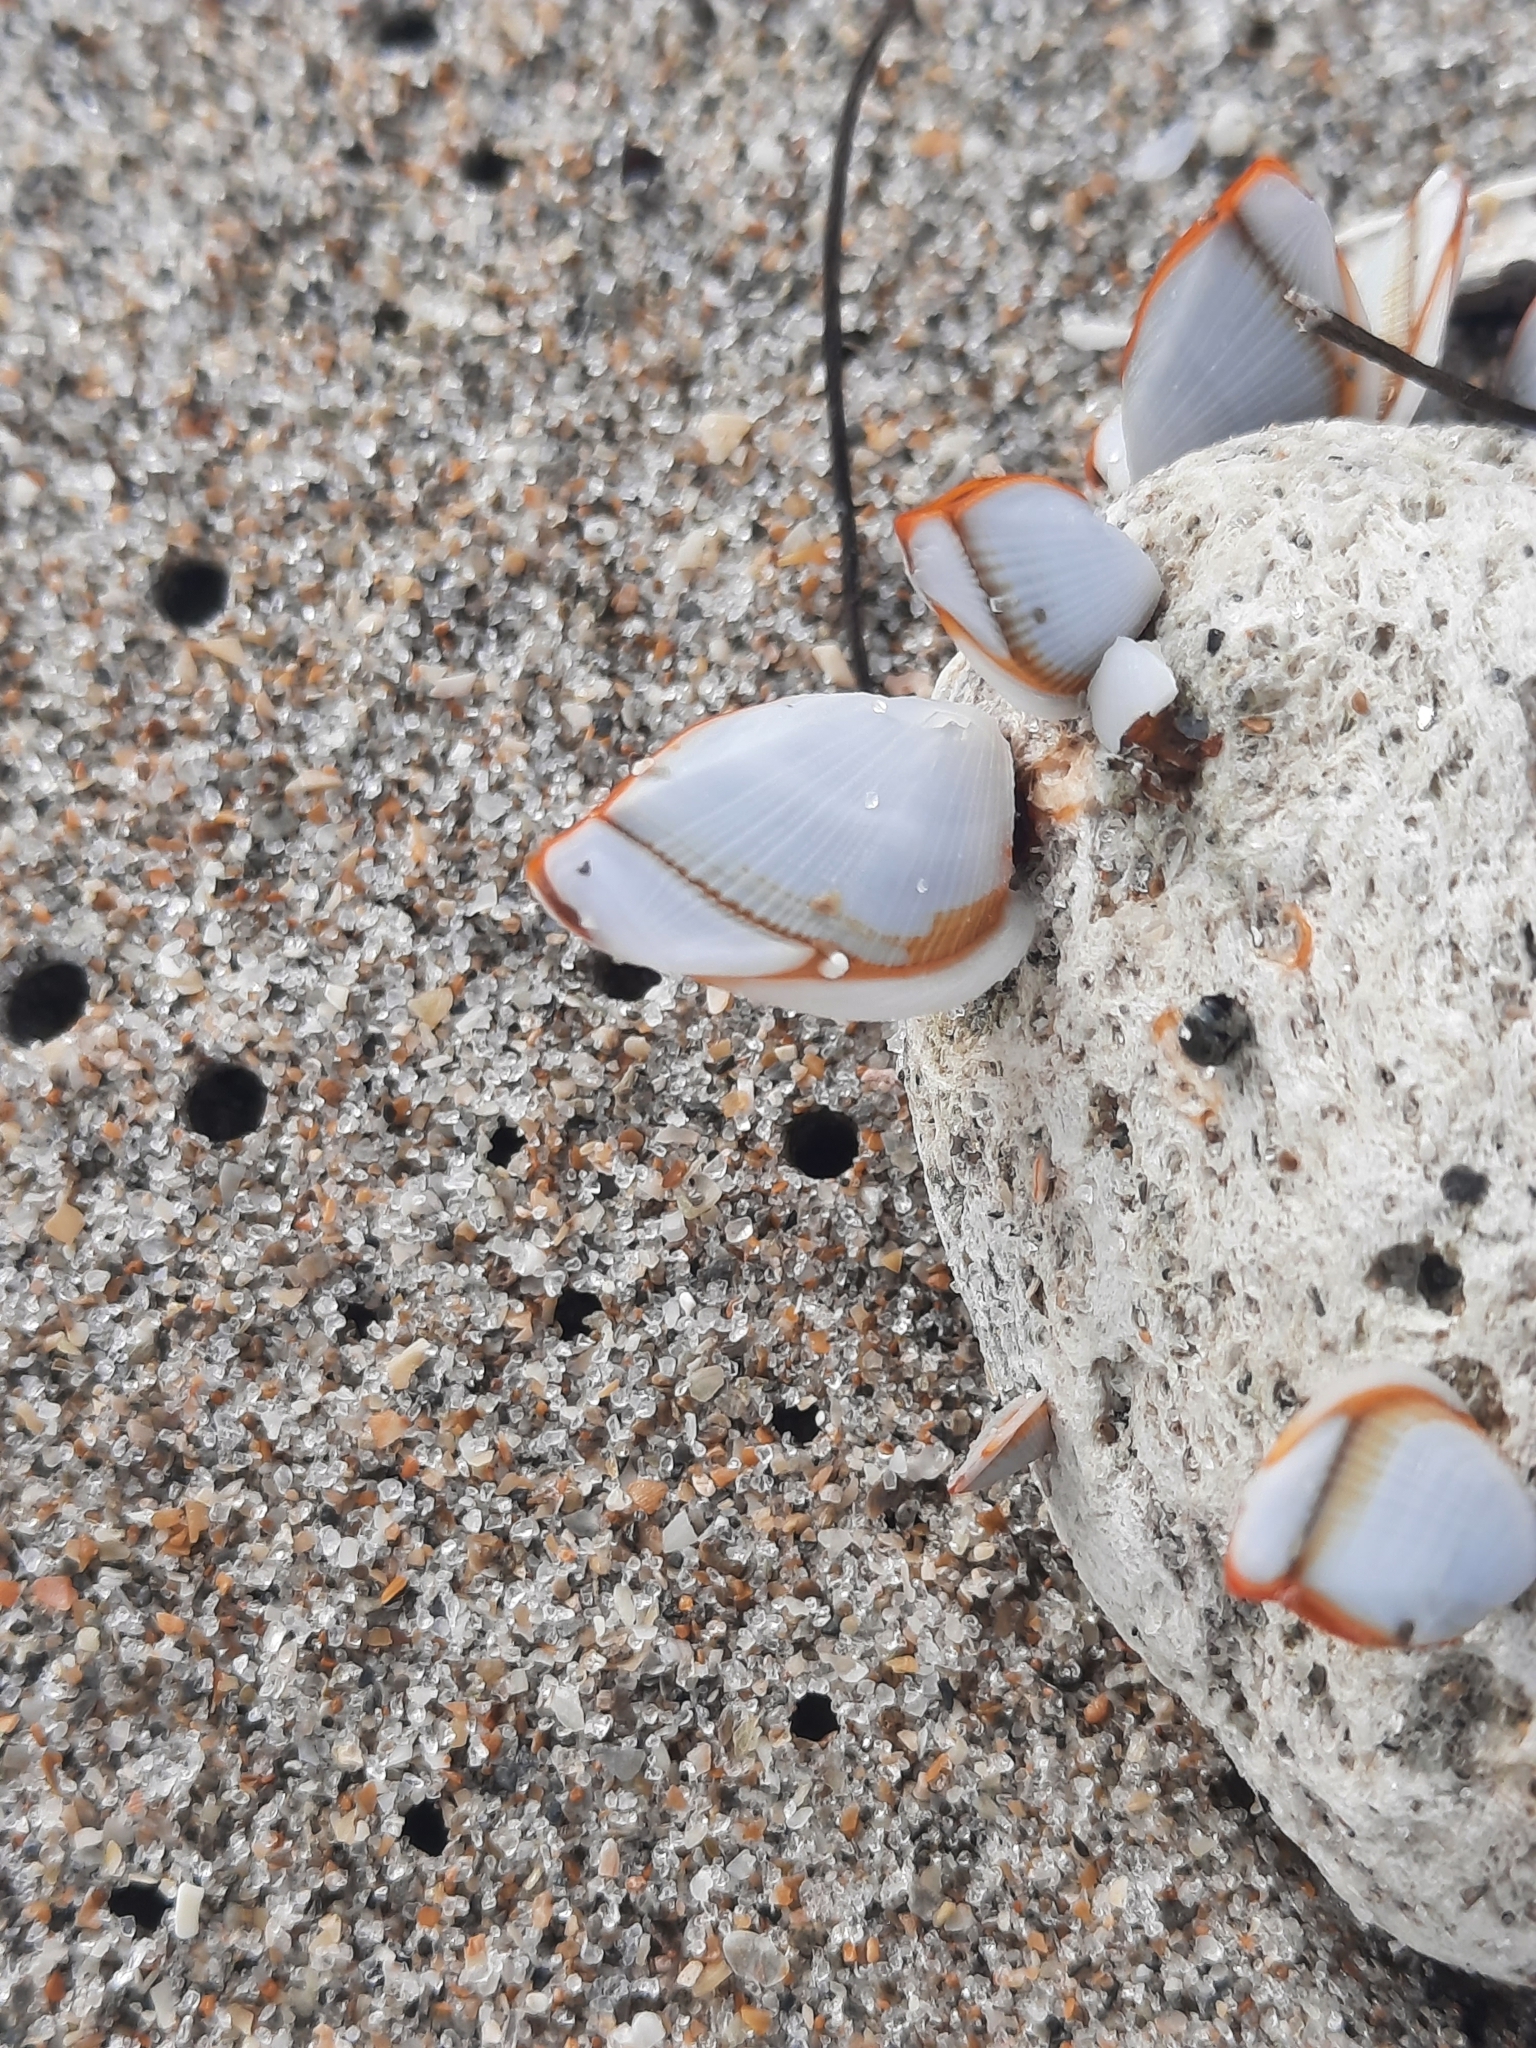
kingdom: Animalia
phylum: Arthropoda
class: Maxillopoda
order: Pedunculata
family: Lepadidae
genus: Lepas
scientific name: Lepas anserifera
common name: Goose barnacle
